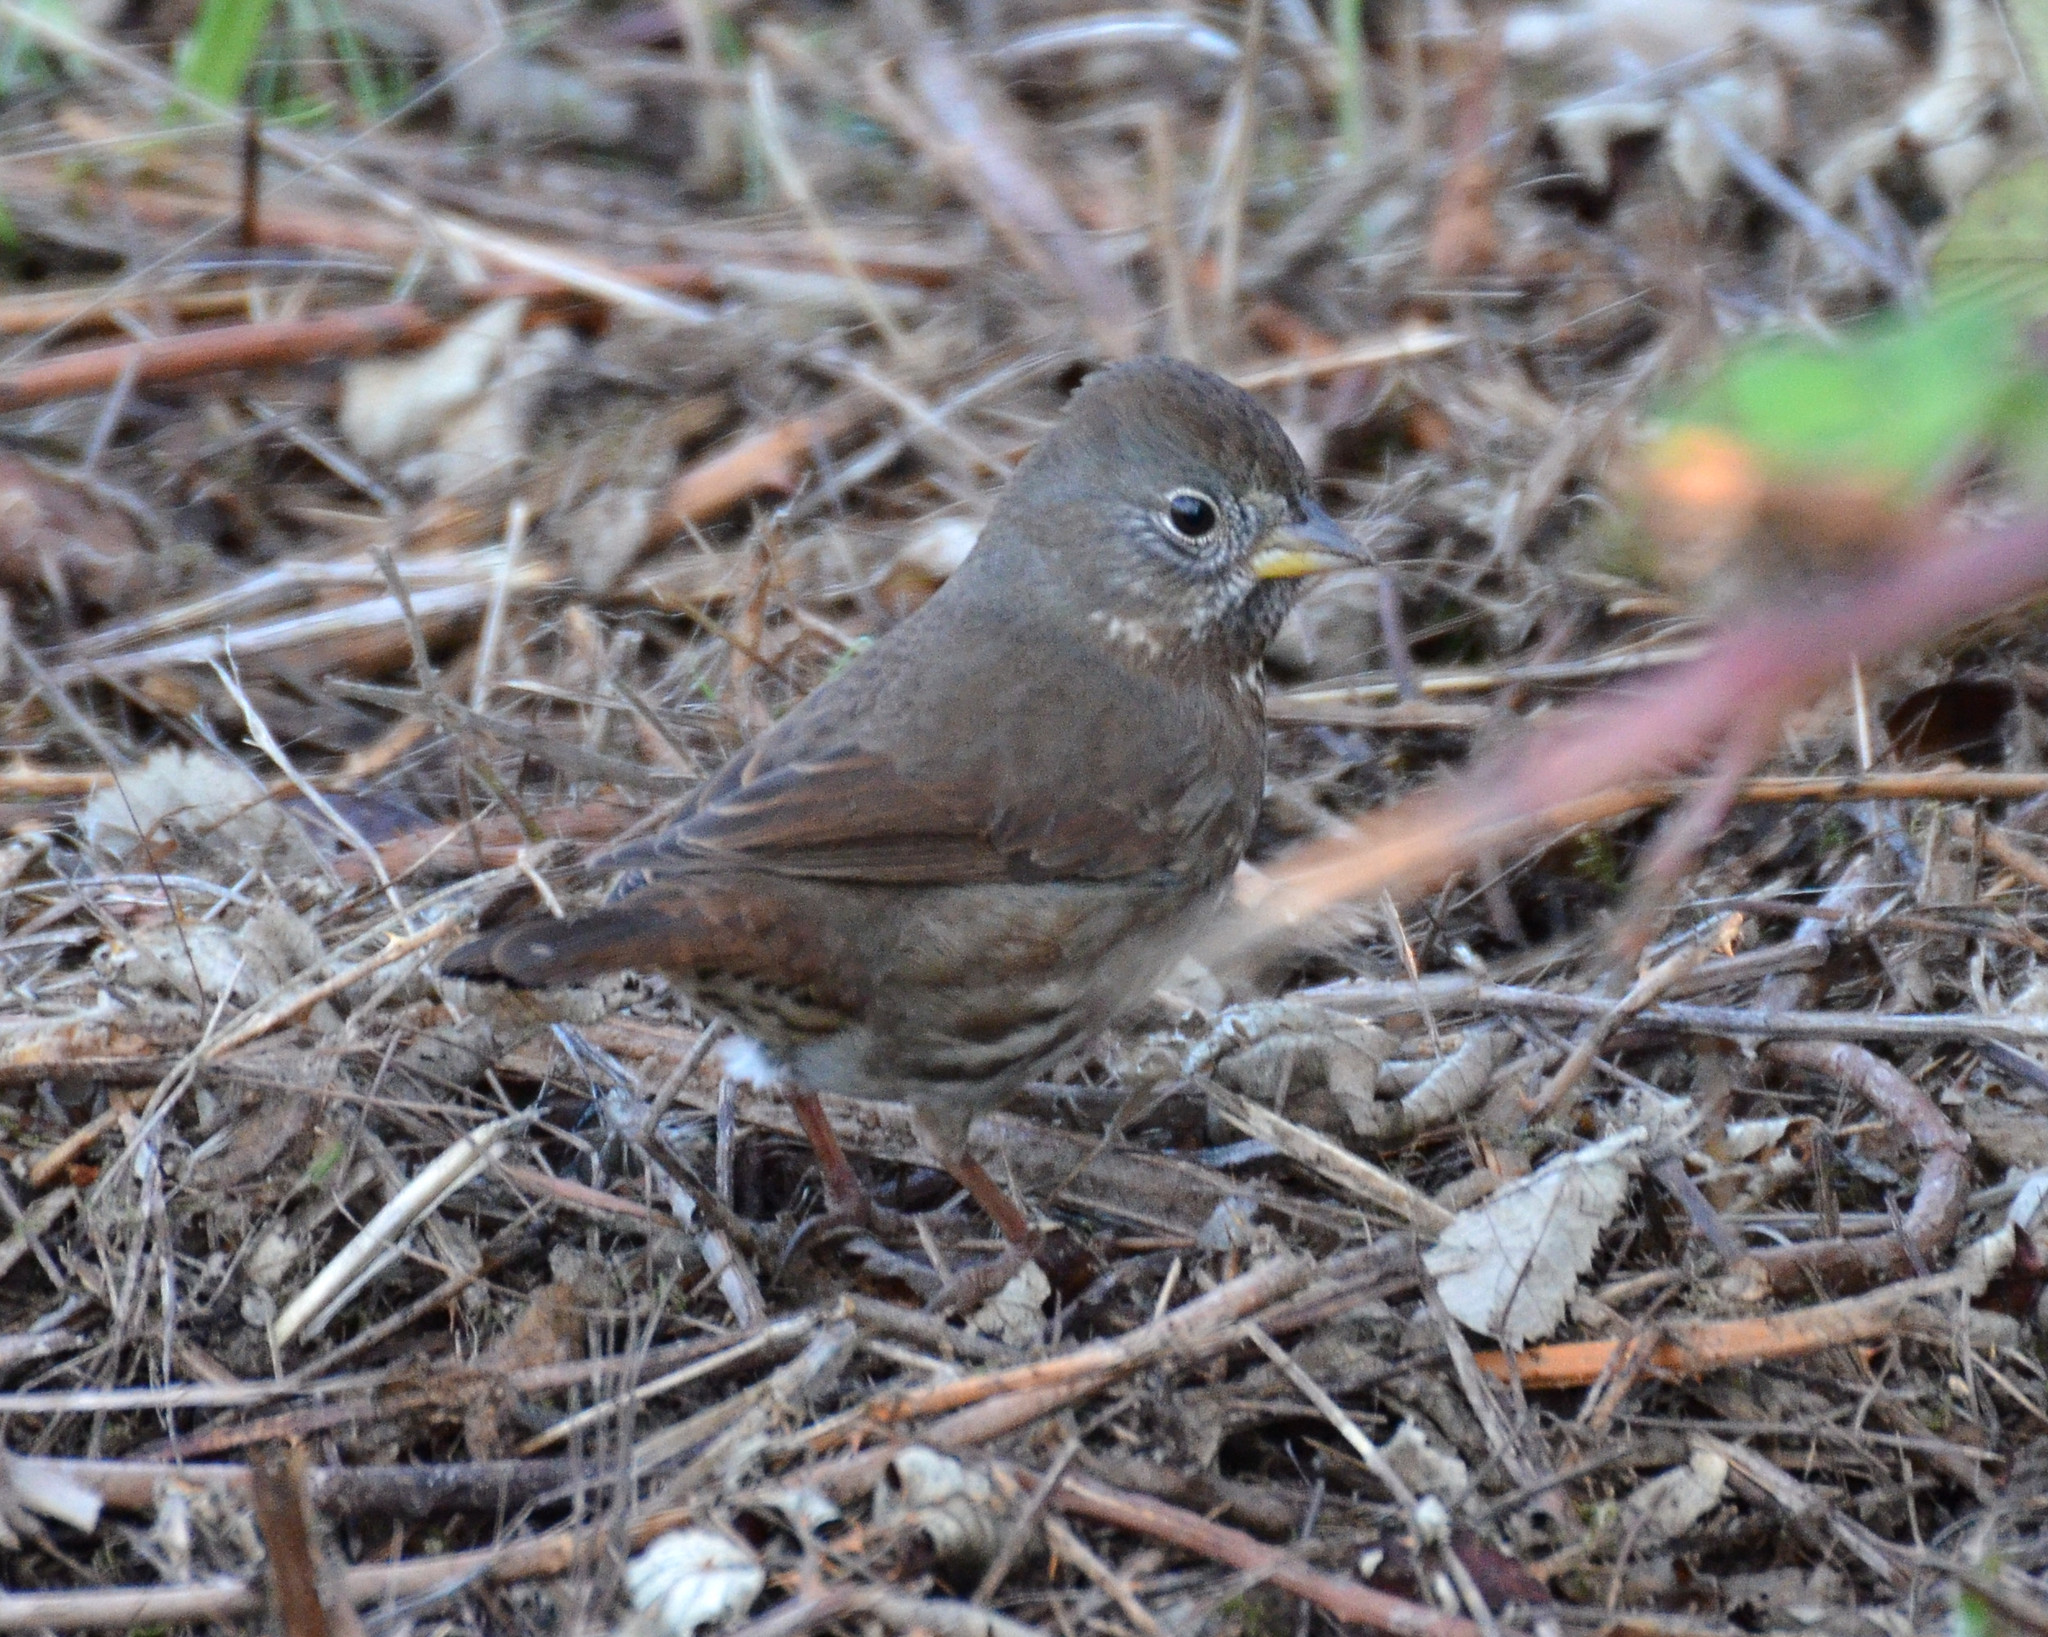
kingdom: Animalia
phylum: Chordata
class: Aves
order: Passeriformes
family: Passerellidae
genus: Passerella
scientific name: Passerella iliaca
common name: Fox sparrow
